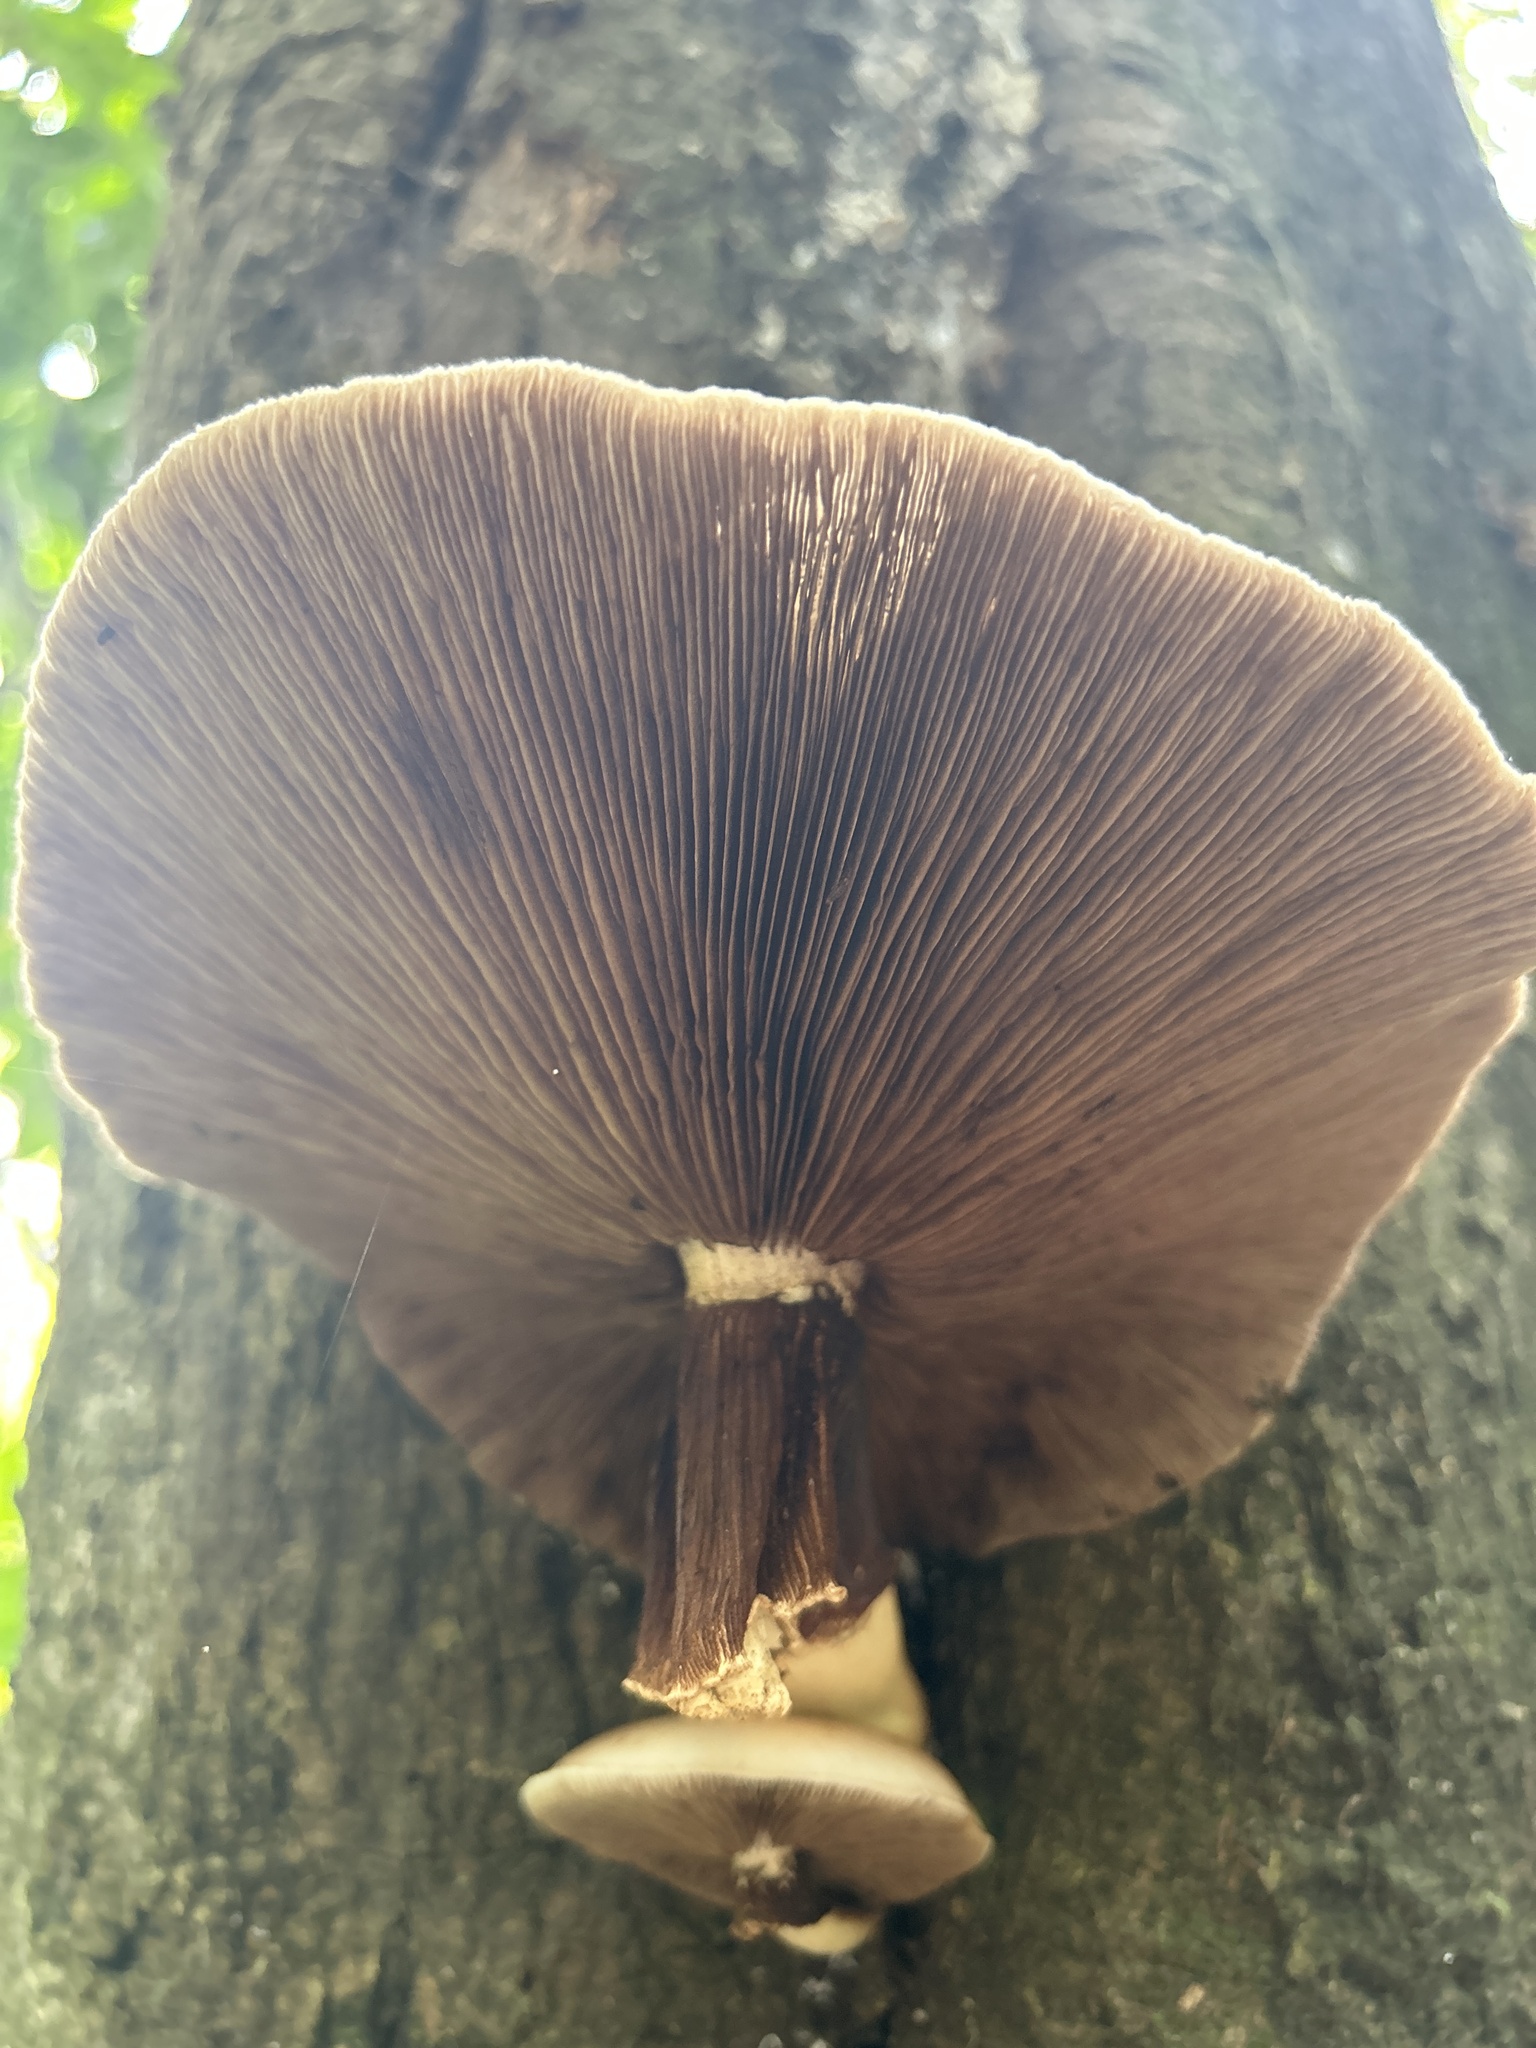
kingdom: Fungi
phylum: Basidiomycota
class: Agaricomycetes
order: Agaricales
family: Tubariaceae
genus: Cyclocybe
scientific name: Cyclocybe parasitica
